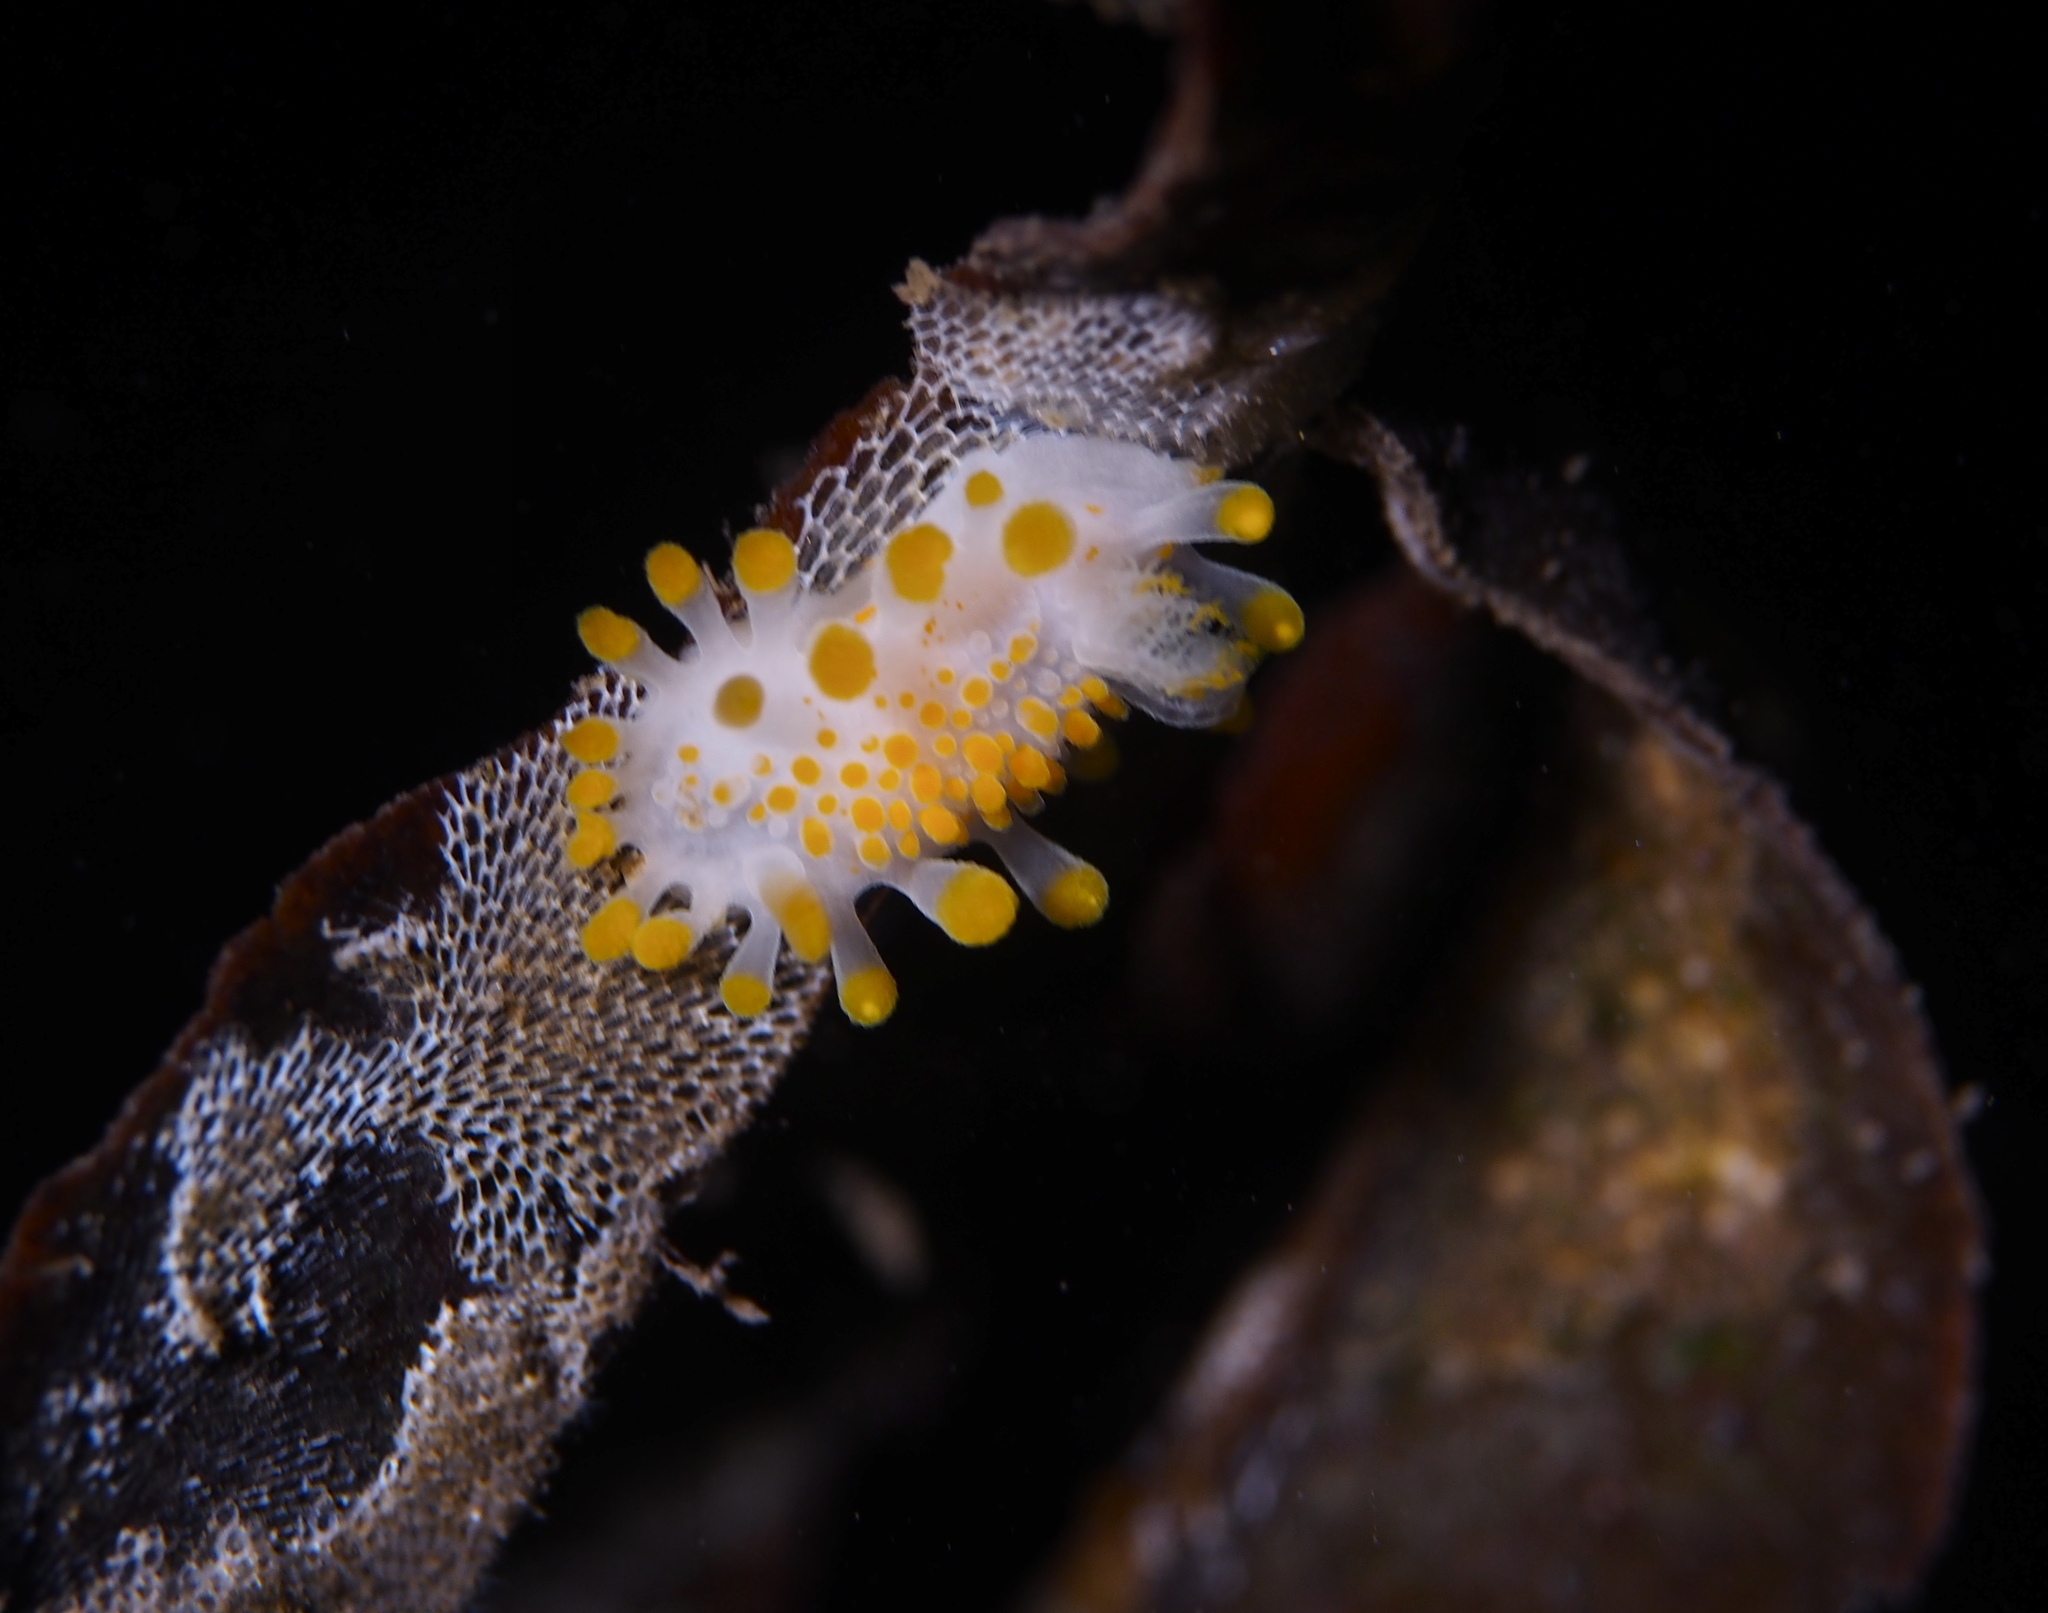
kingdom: Animalia
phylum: Mollusca
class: Gastropoda
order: Nudibranchia
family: Polyceridae
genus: Limacia
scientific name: Limacia clavigera
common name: Orange-clubbed sea slug
